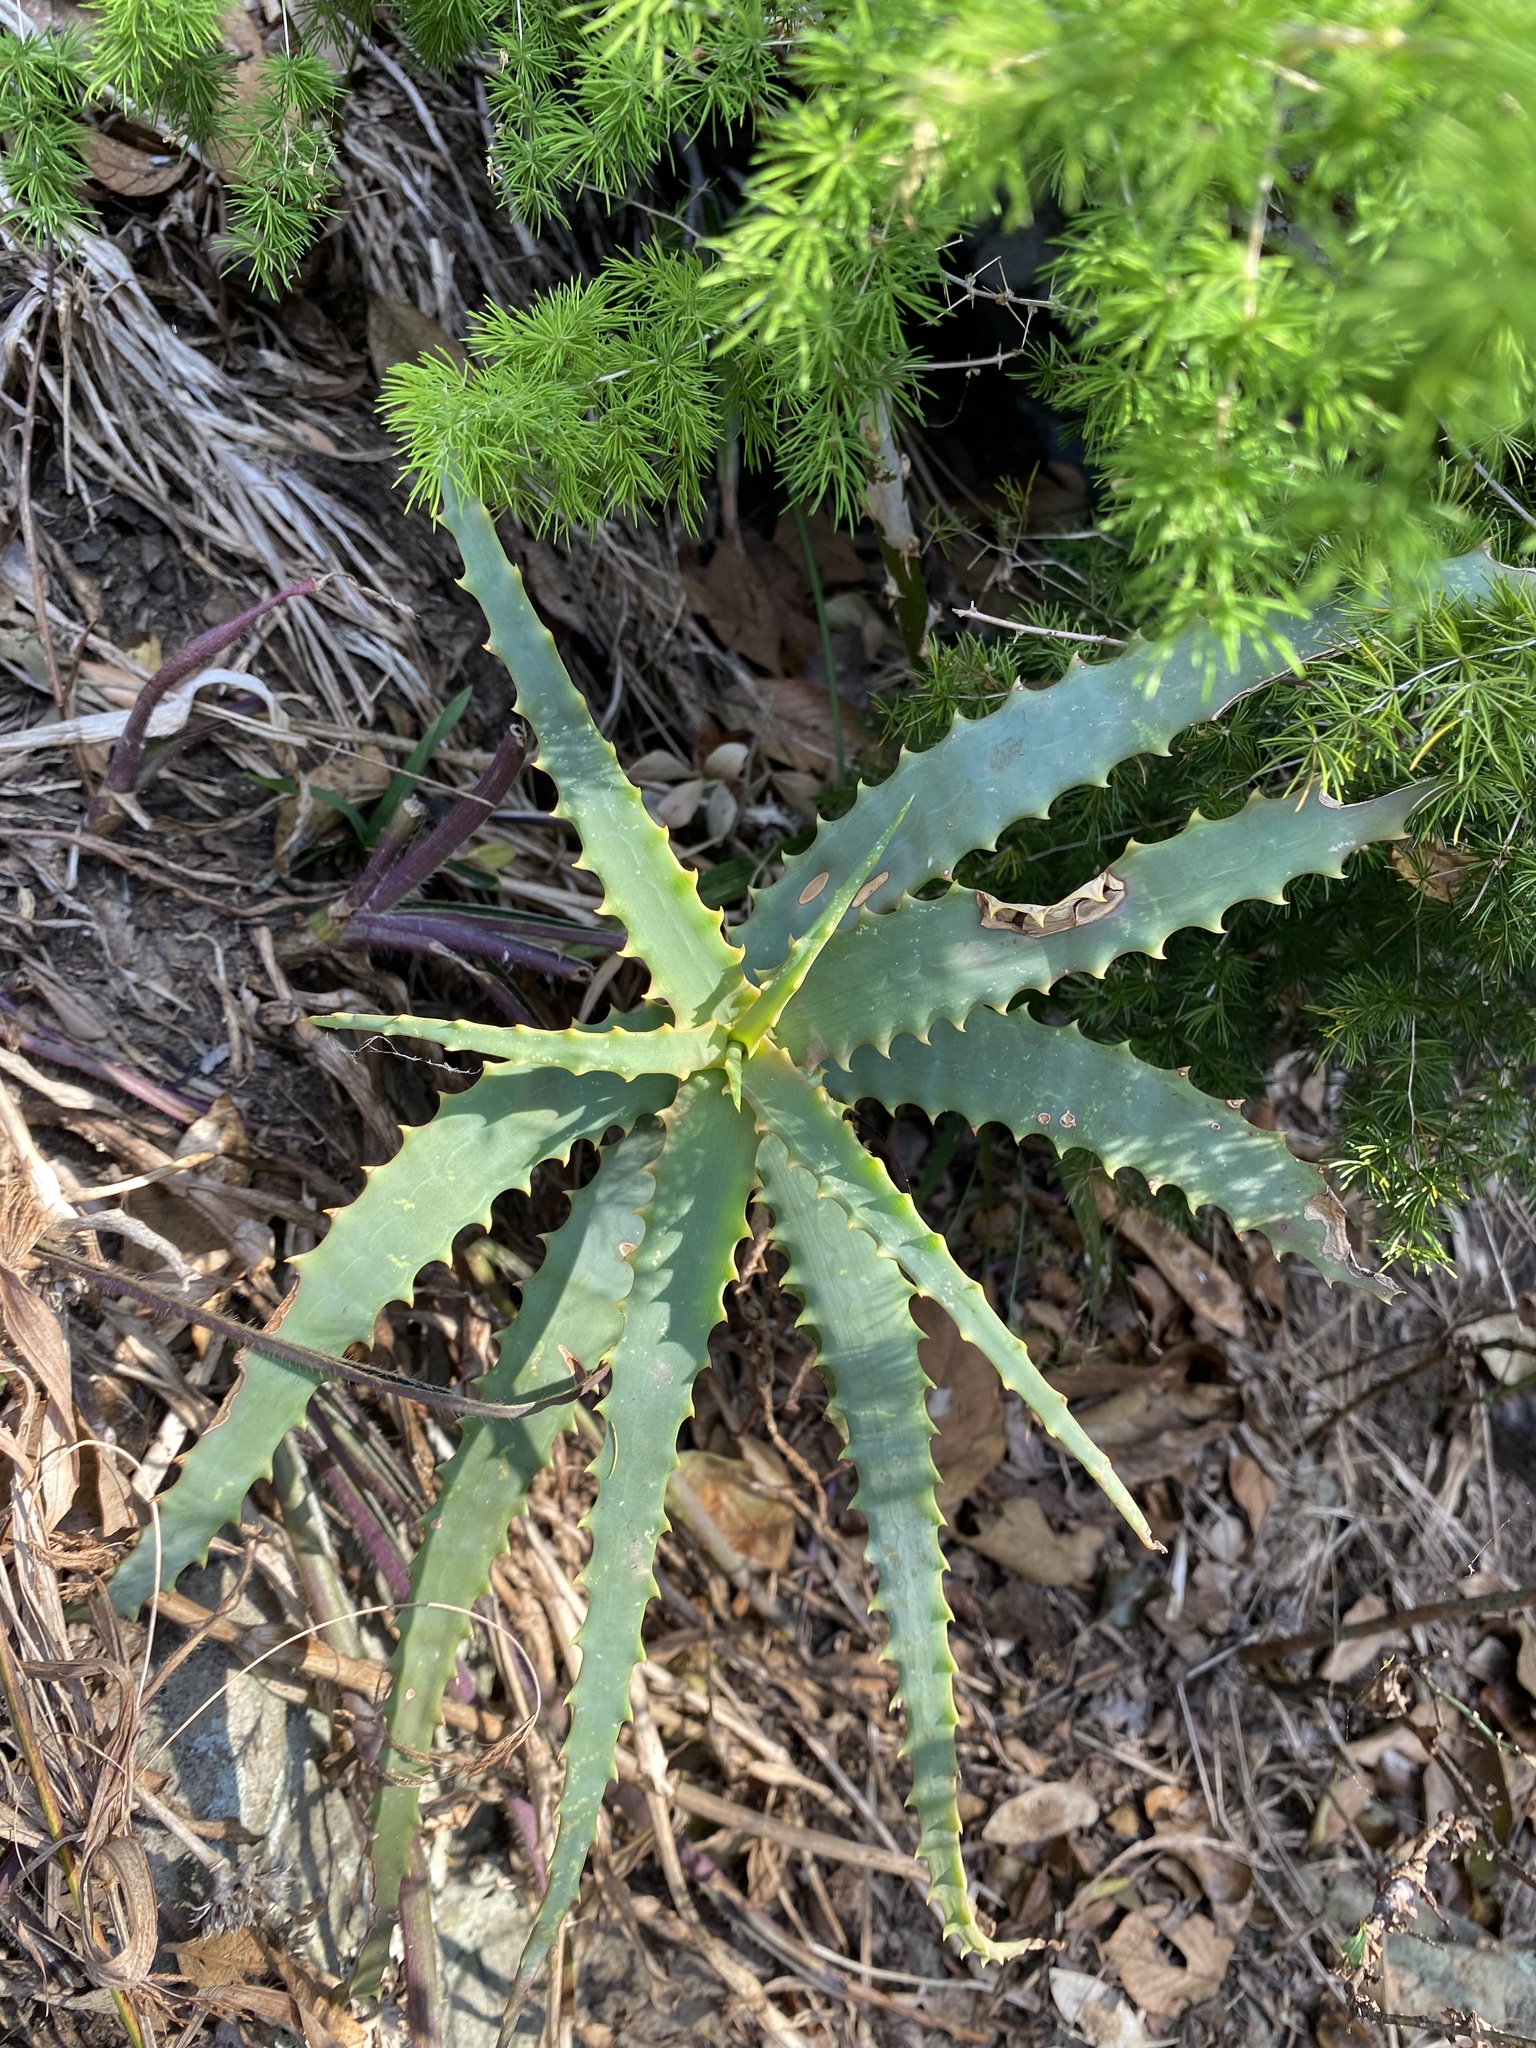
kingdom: Plantae
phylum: Tracheophyta
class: Liliopsida
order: Asparagales
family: Asphodelaceae
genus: Aloe
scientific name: Aloe arborescens
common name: Candelabra aloe
